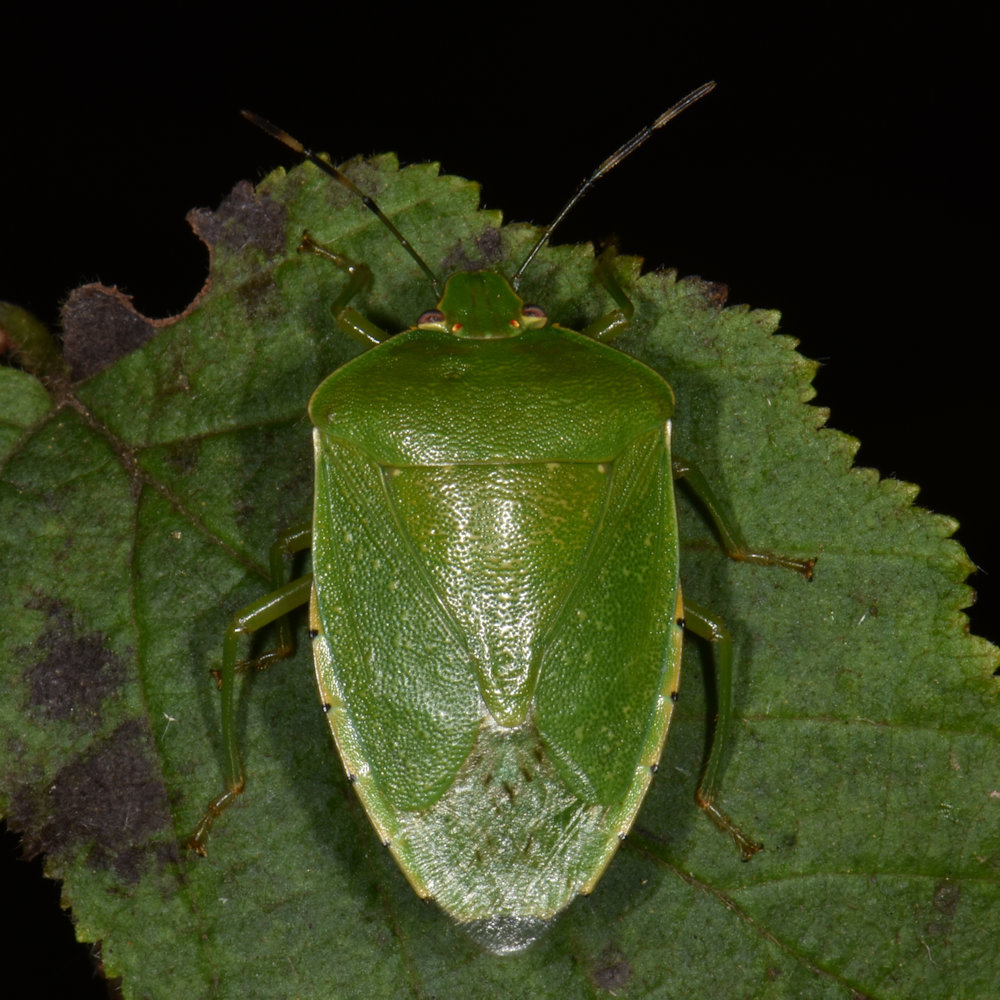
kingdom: Animalia
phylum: Arthropoda
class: Insecta
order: Hemiptera
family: Pentatomidae
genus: Chinavia
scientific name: Chinavia hilaris
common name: Green stink bug
